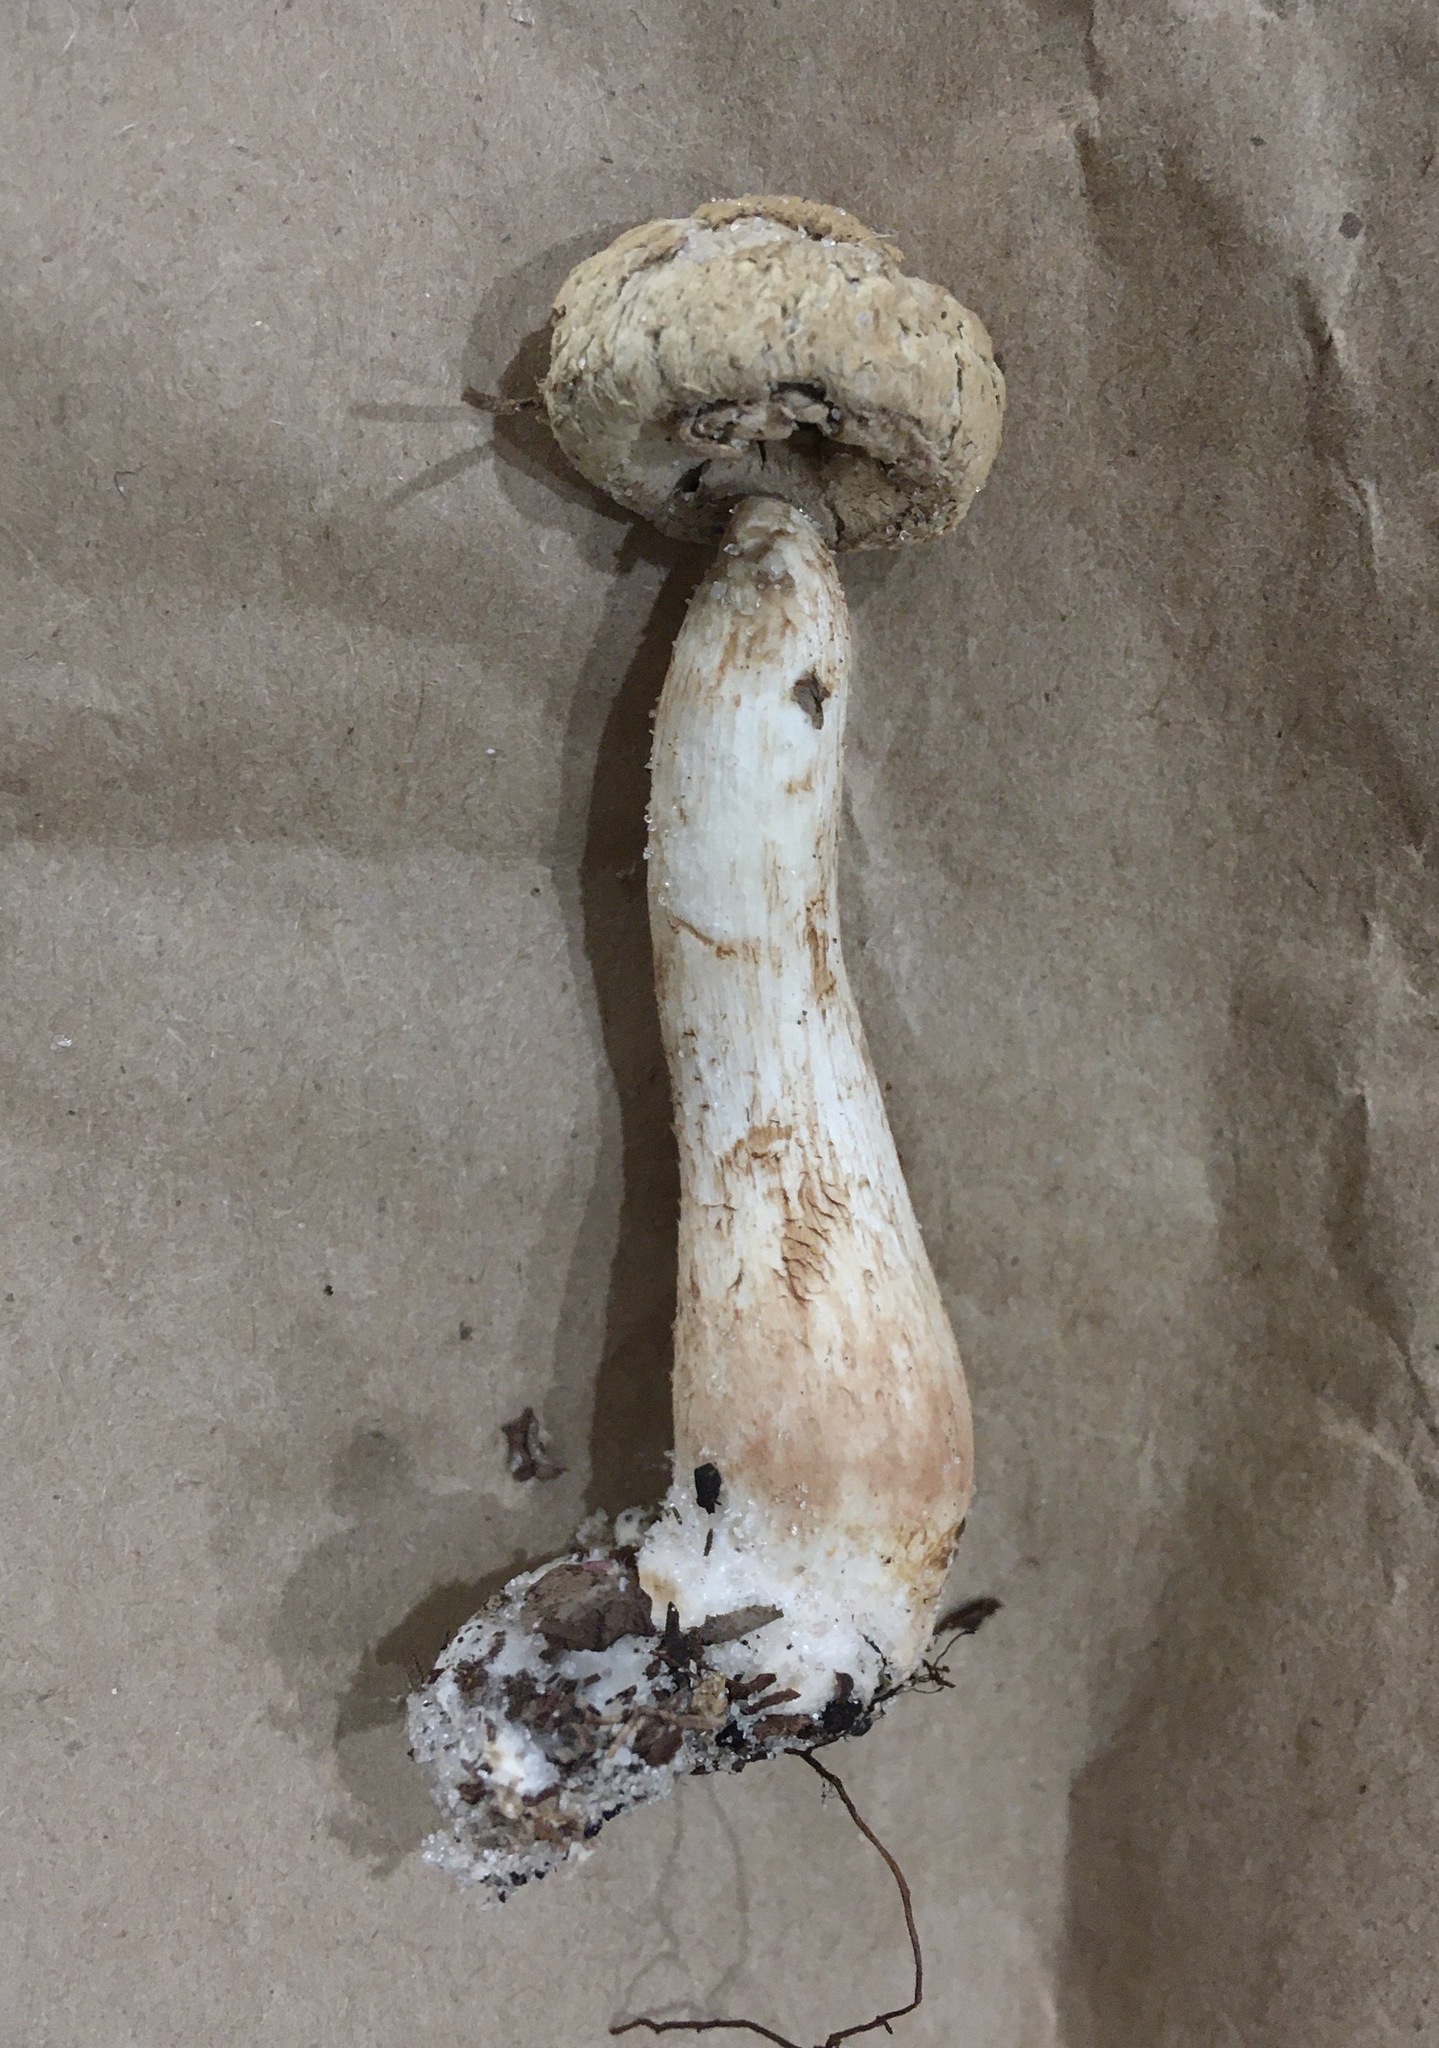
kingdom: Fungi
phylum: Basidiomycota
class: Agaricomycetes
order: Boletales
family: Boletaceae
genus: Boletellus
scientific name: Boletellus ananas
